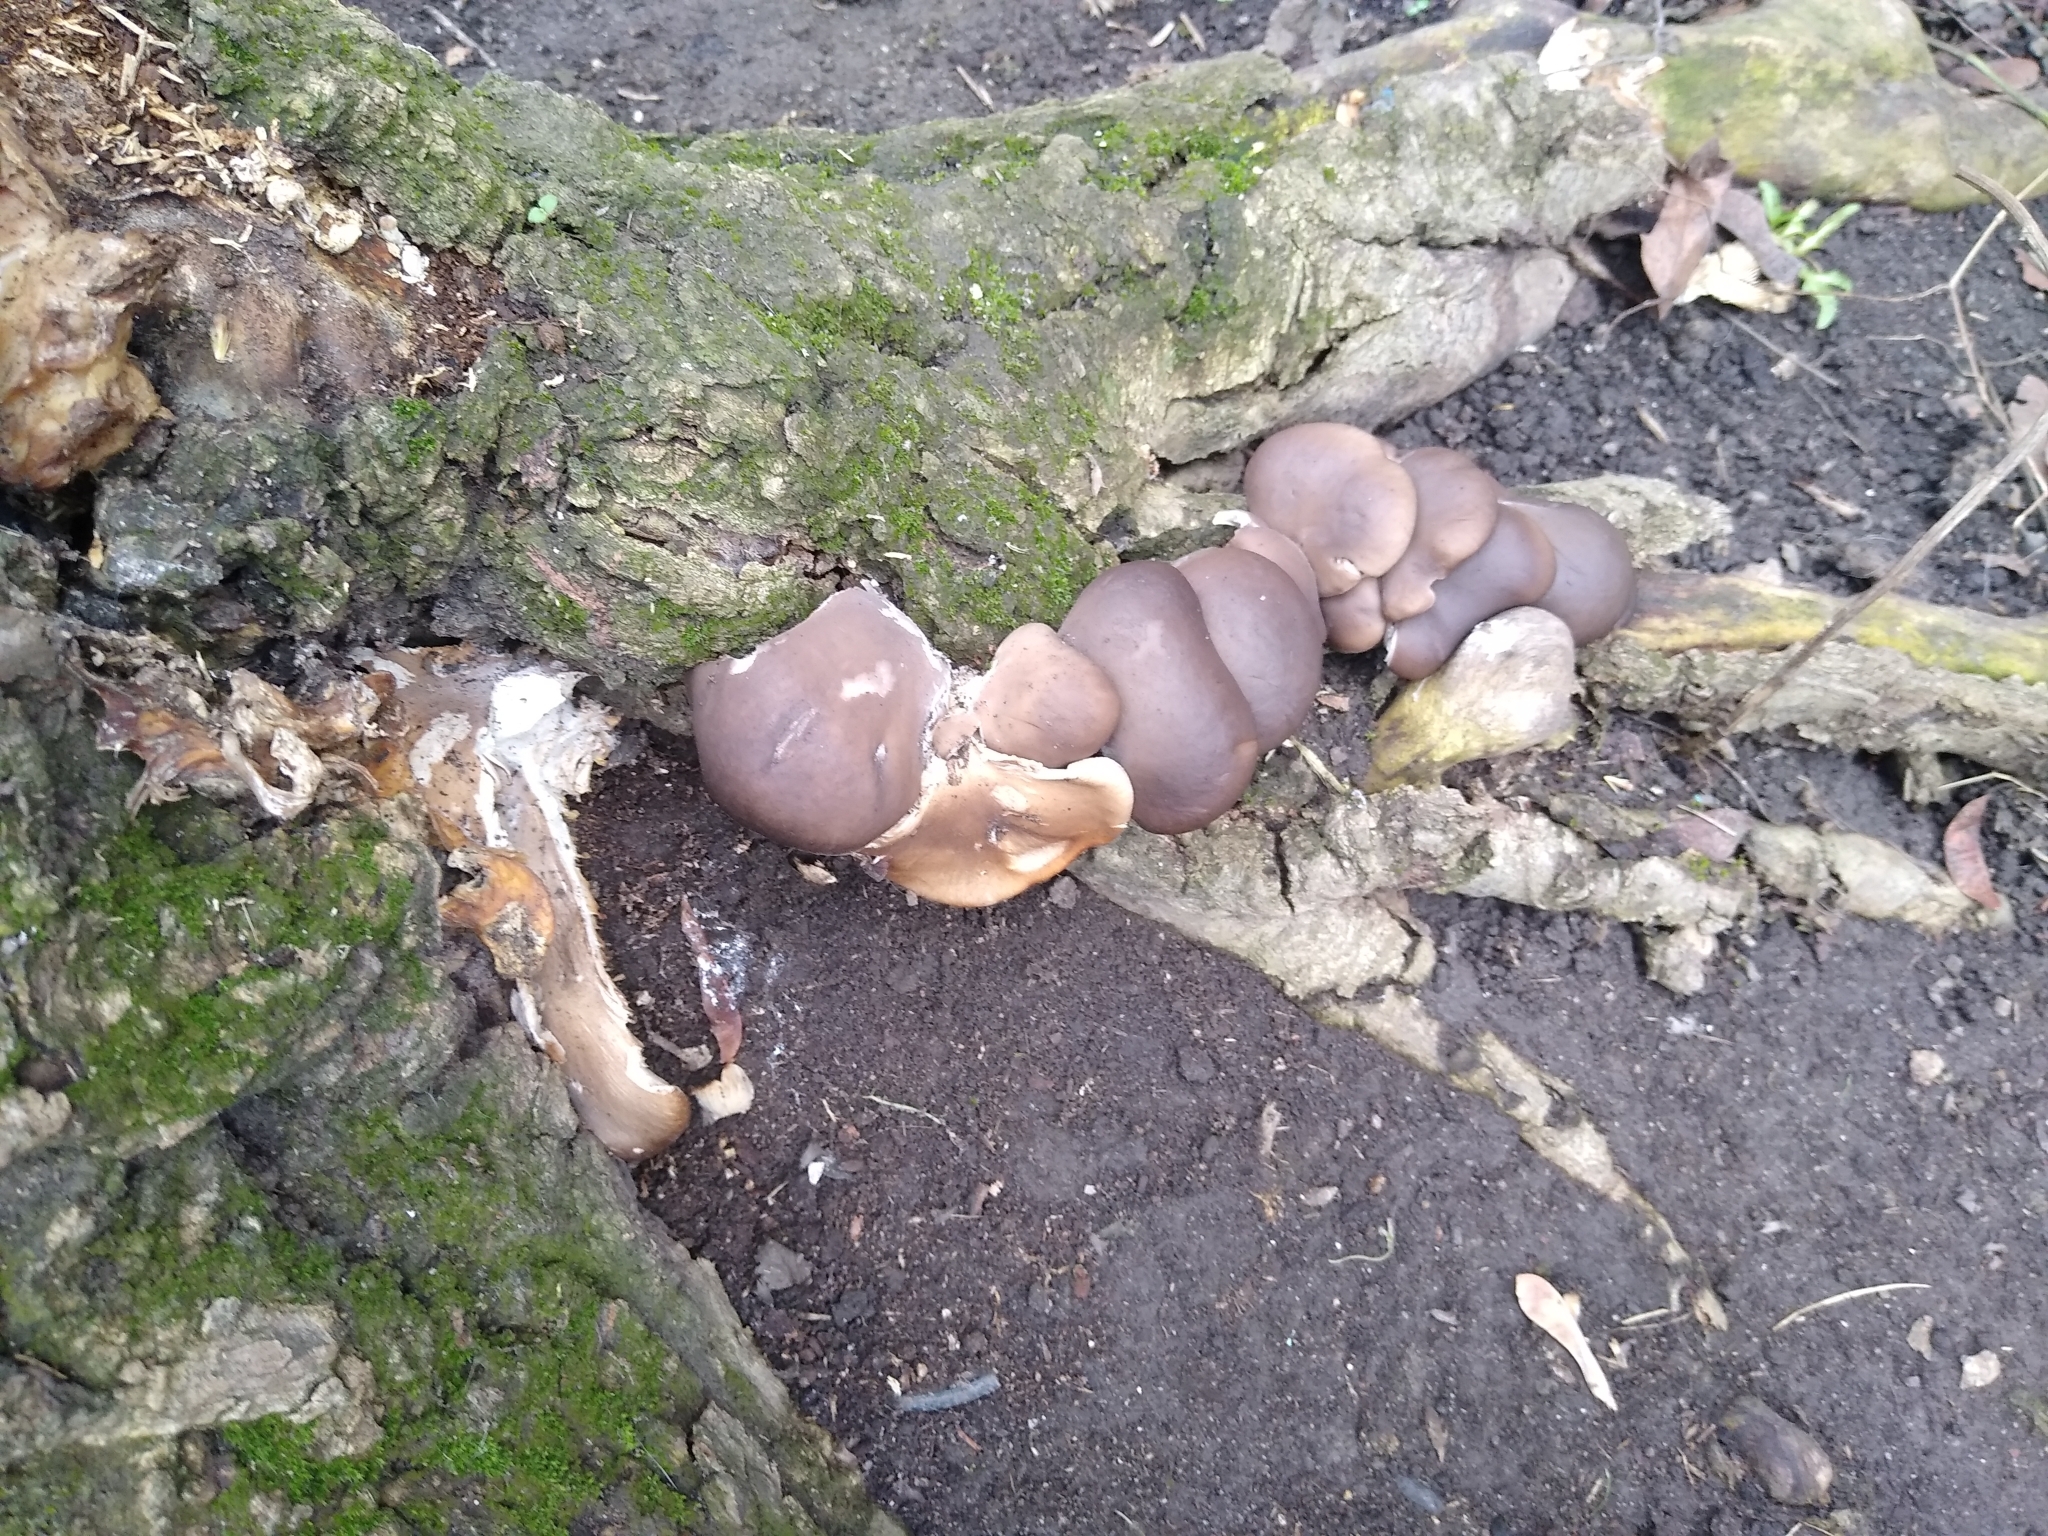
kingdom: Fungi
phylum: Basidiomycota
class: Agaricomycetes
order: Agaricales
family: Pleurotaceae
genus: Pleurotus
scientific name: Pleurotus ostreatus
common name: Oyster mushroom
